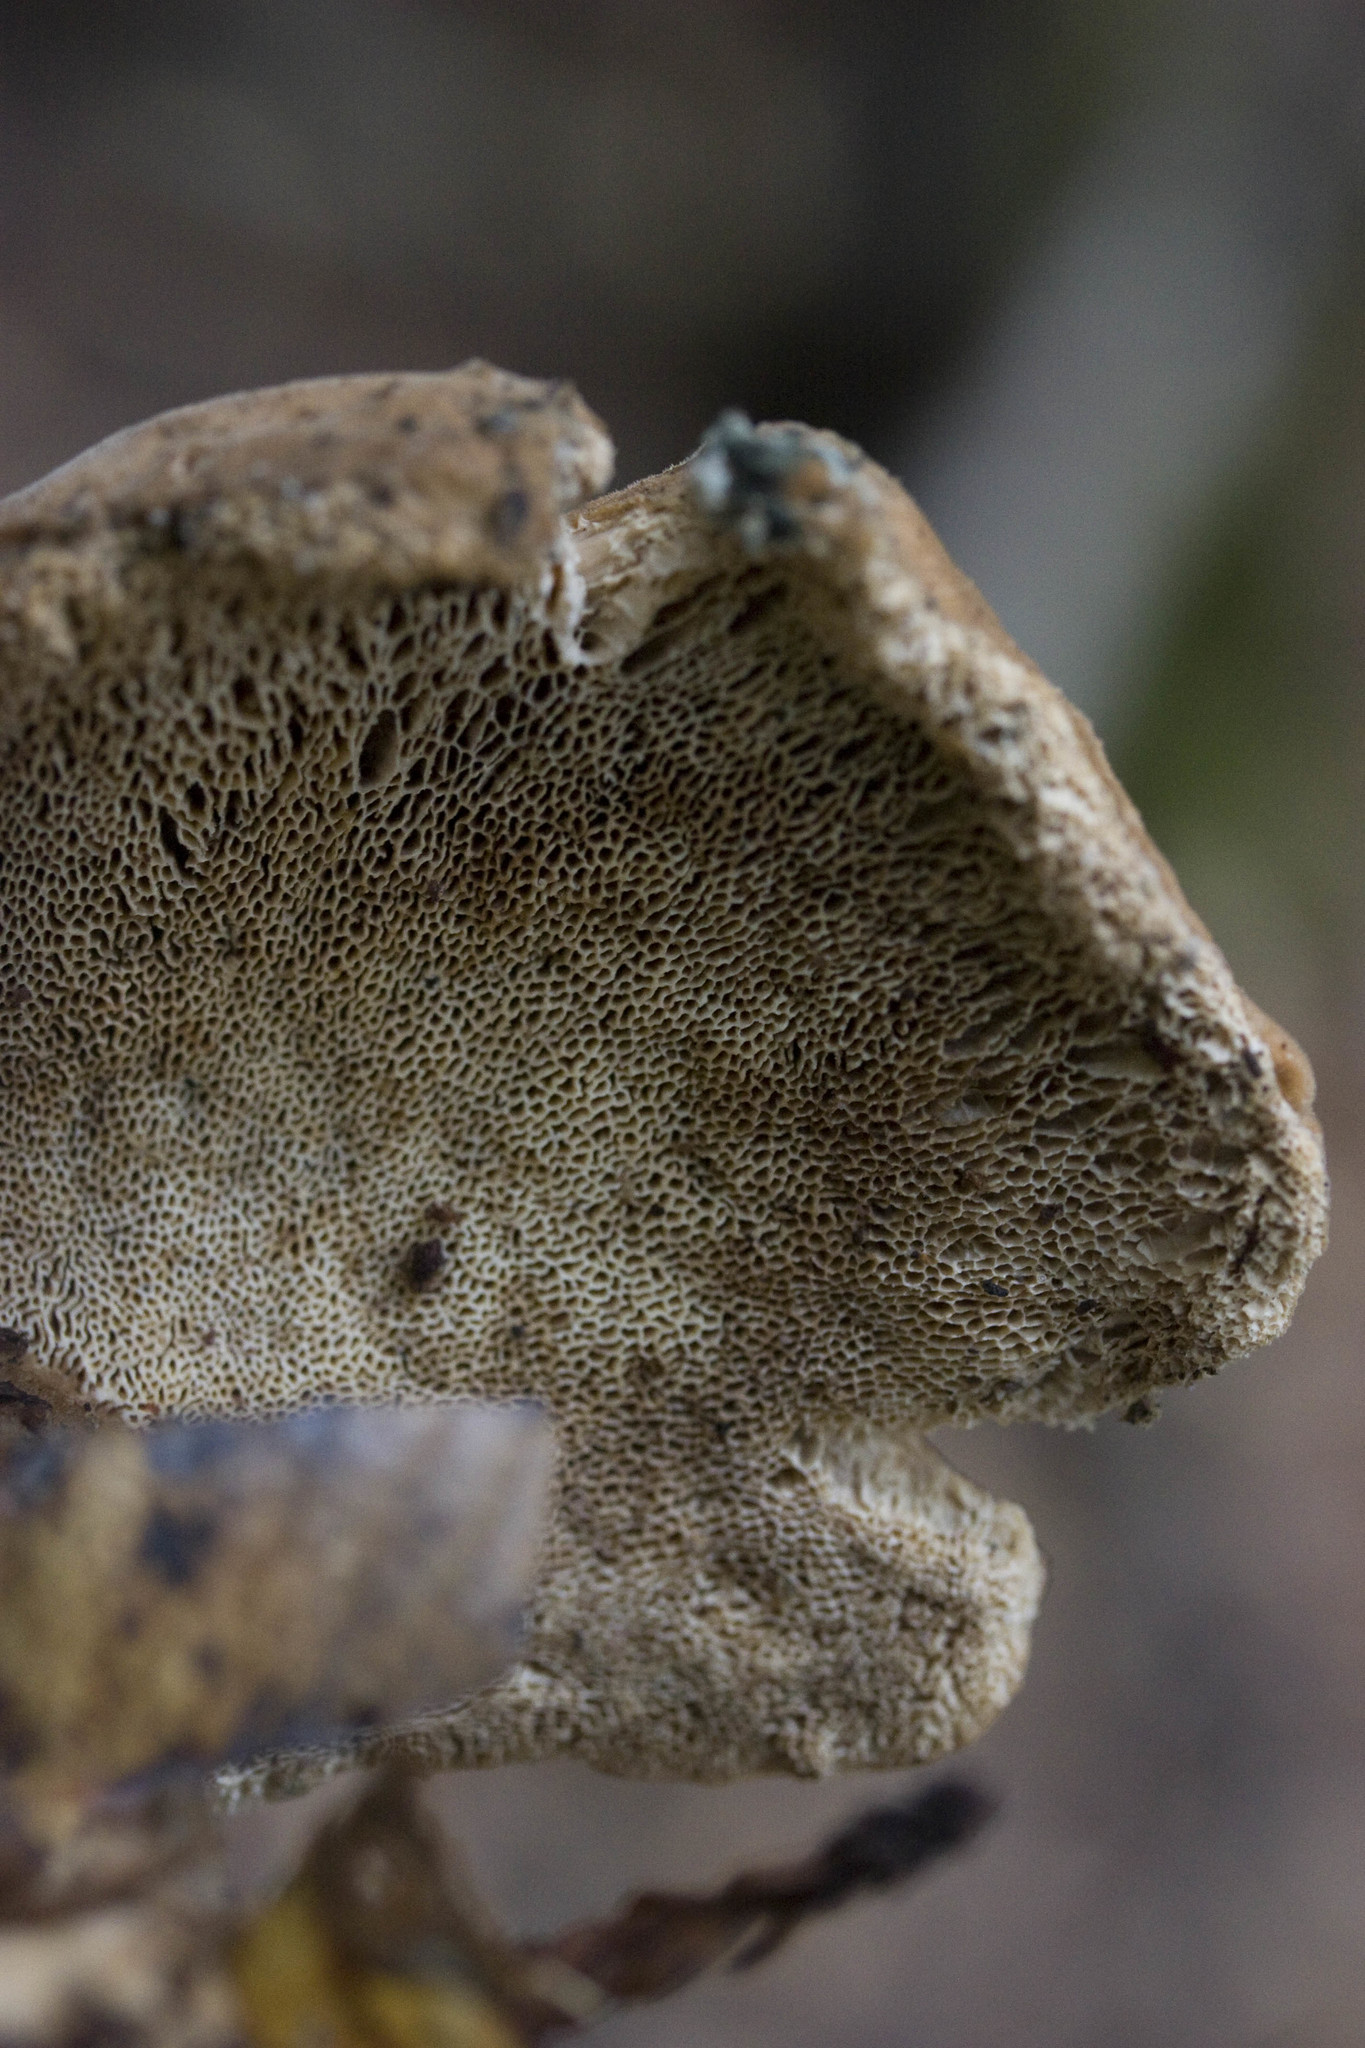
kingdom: Fungi
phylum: Basidiomycota
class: Agaricomycetes
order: Polyporales
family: Dacryobolaceae
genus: Jahnoporus
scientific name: Jahnoporus hirtus
